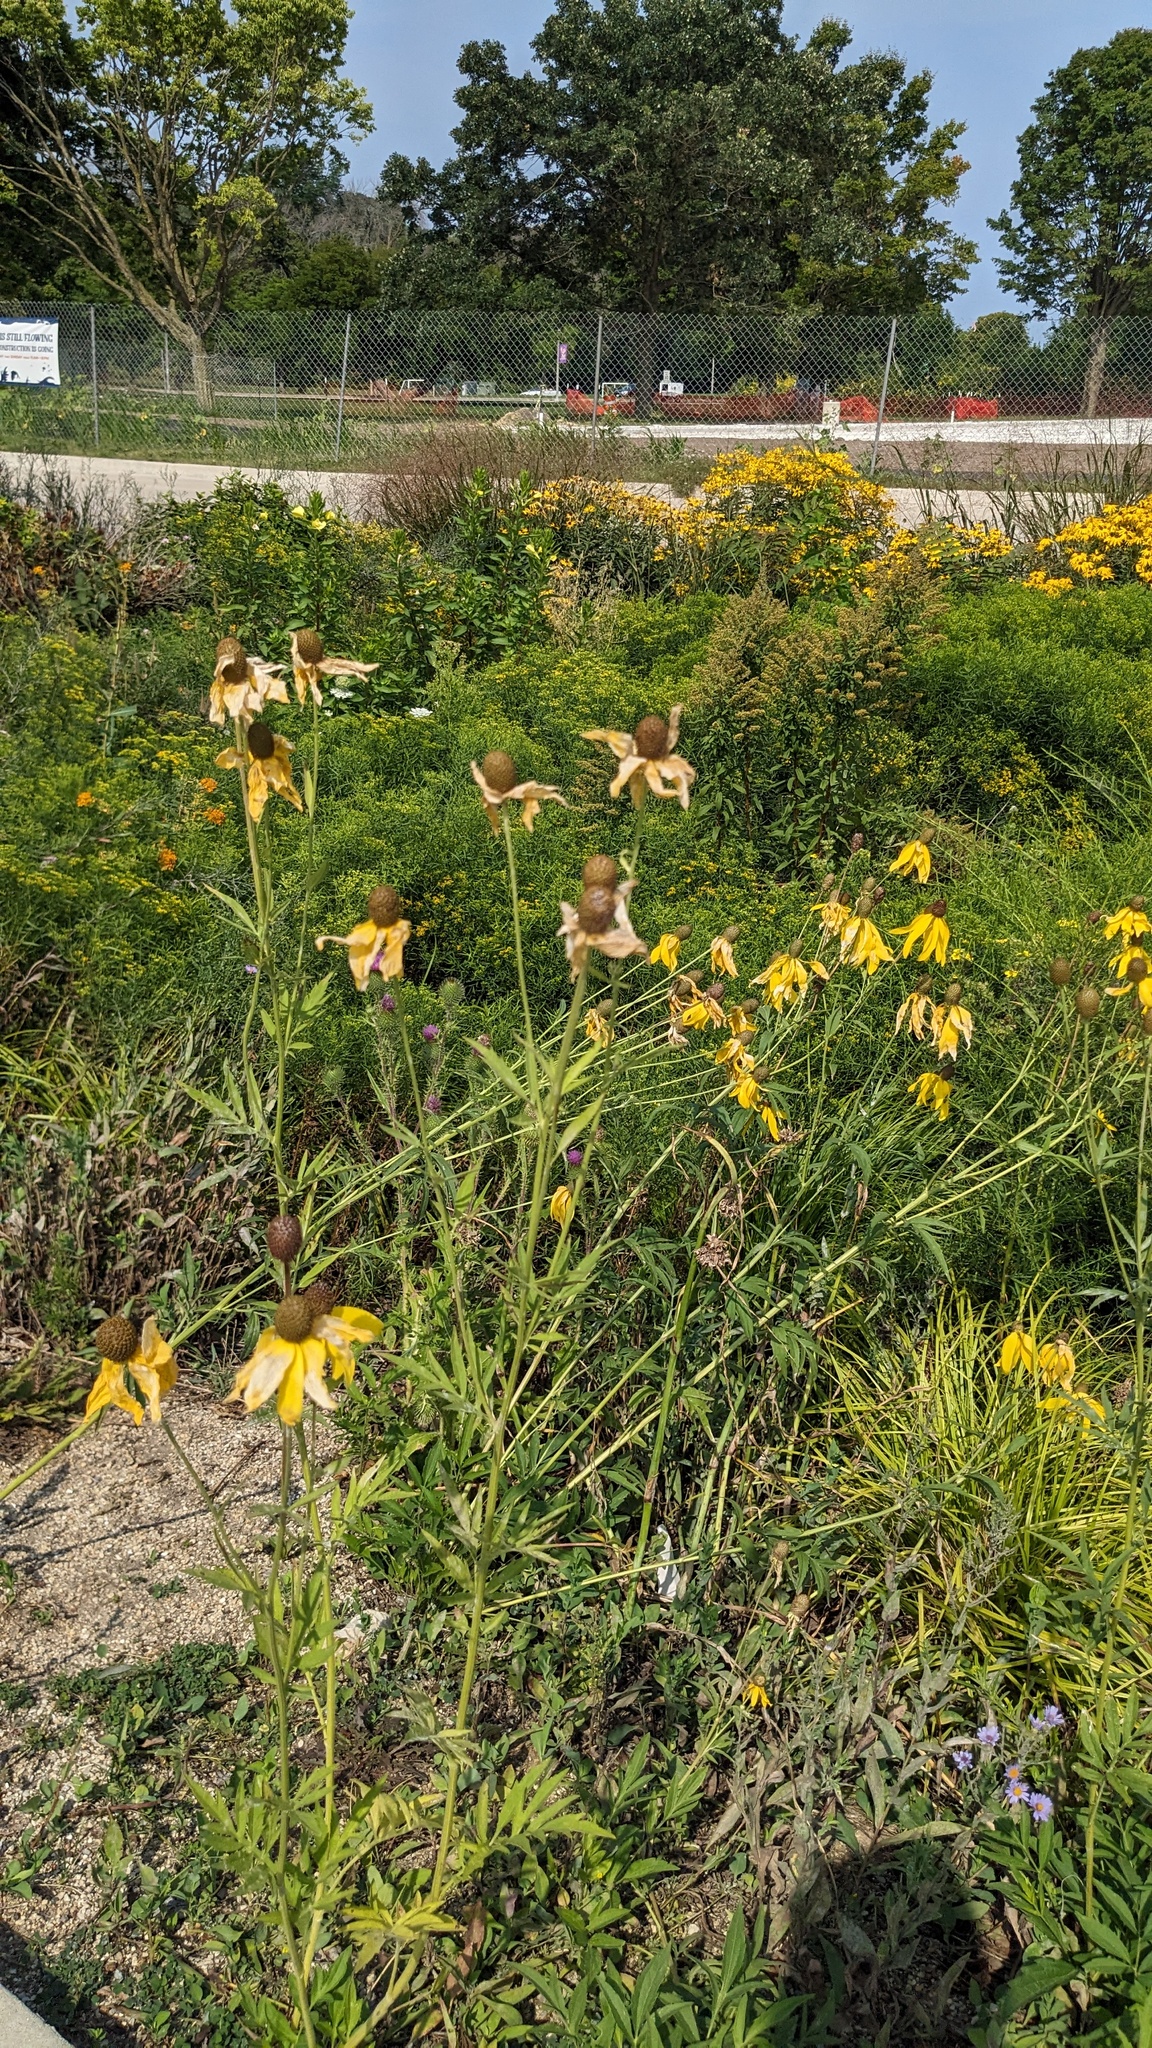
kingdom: Plantae
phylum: Tracheophyta
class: Magnoliopsida
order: Asterales
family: Asteraceae
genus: Ratibida
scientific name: Ratibida pinnata
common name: Drooping prairie-coneflower
